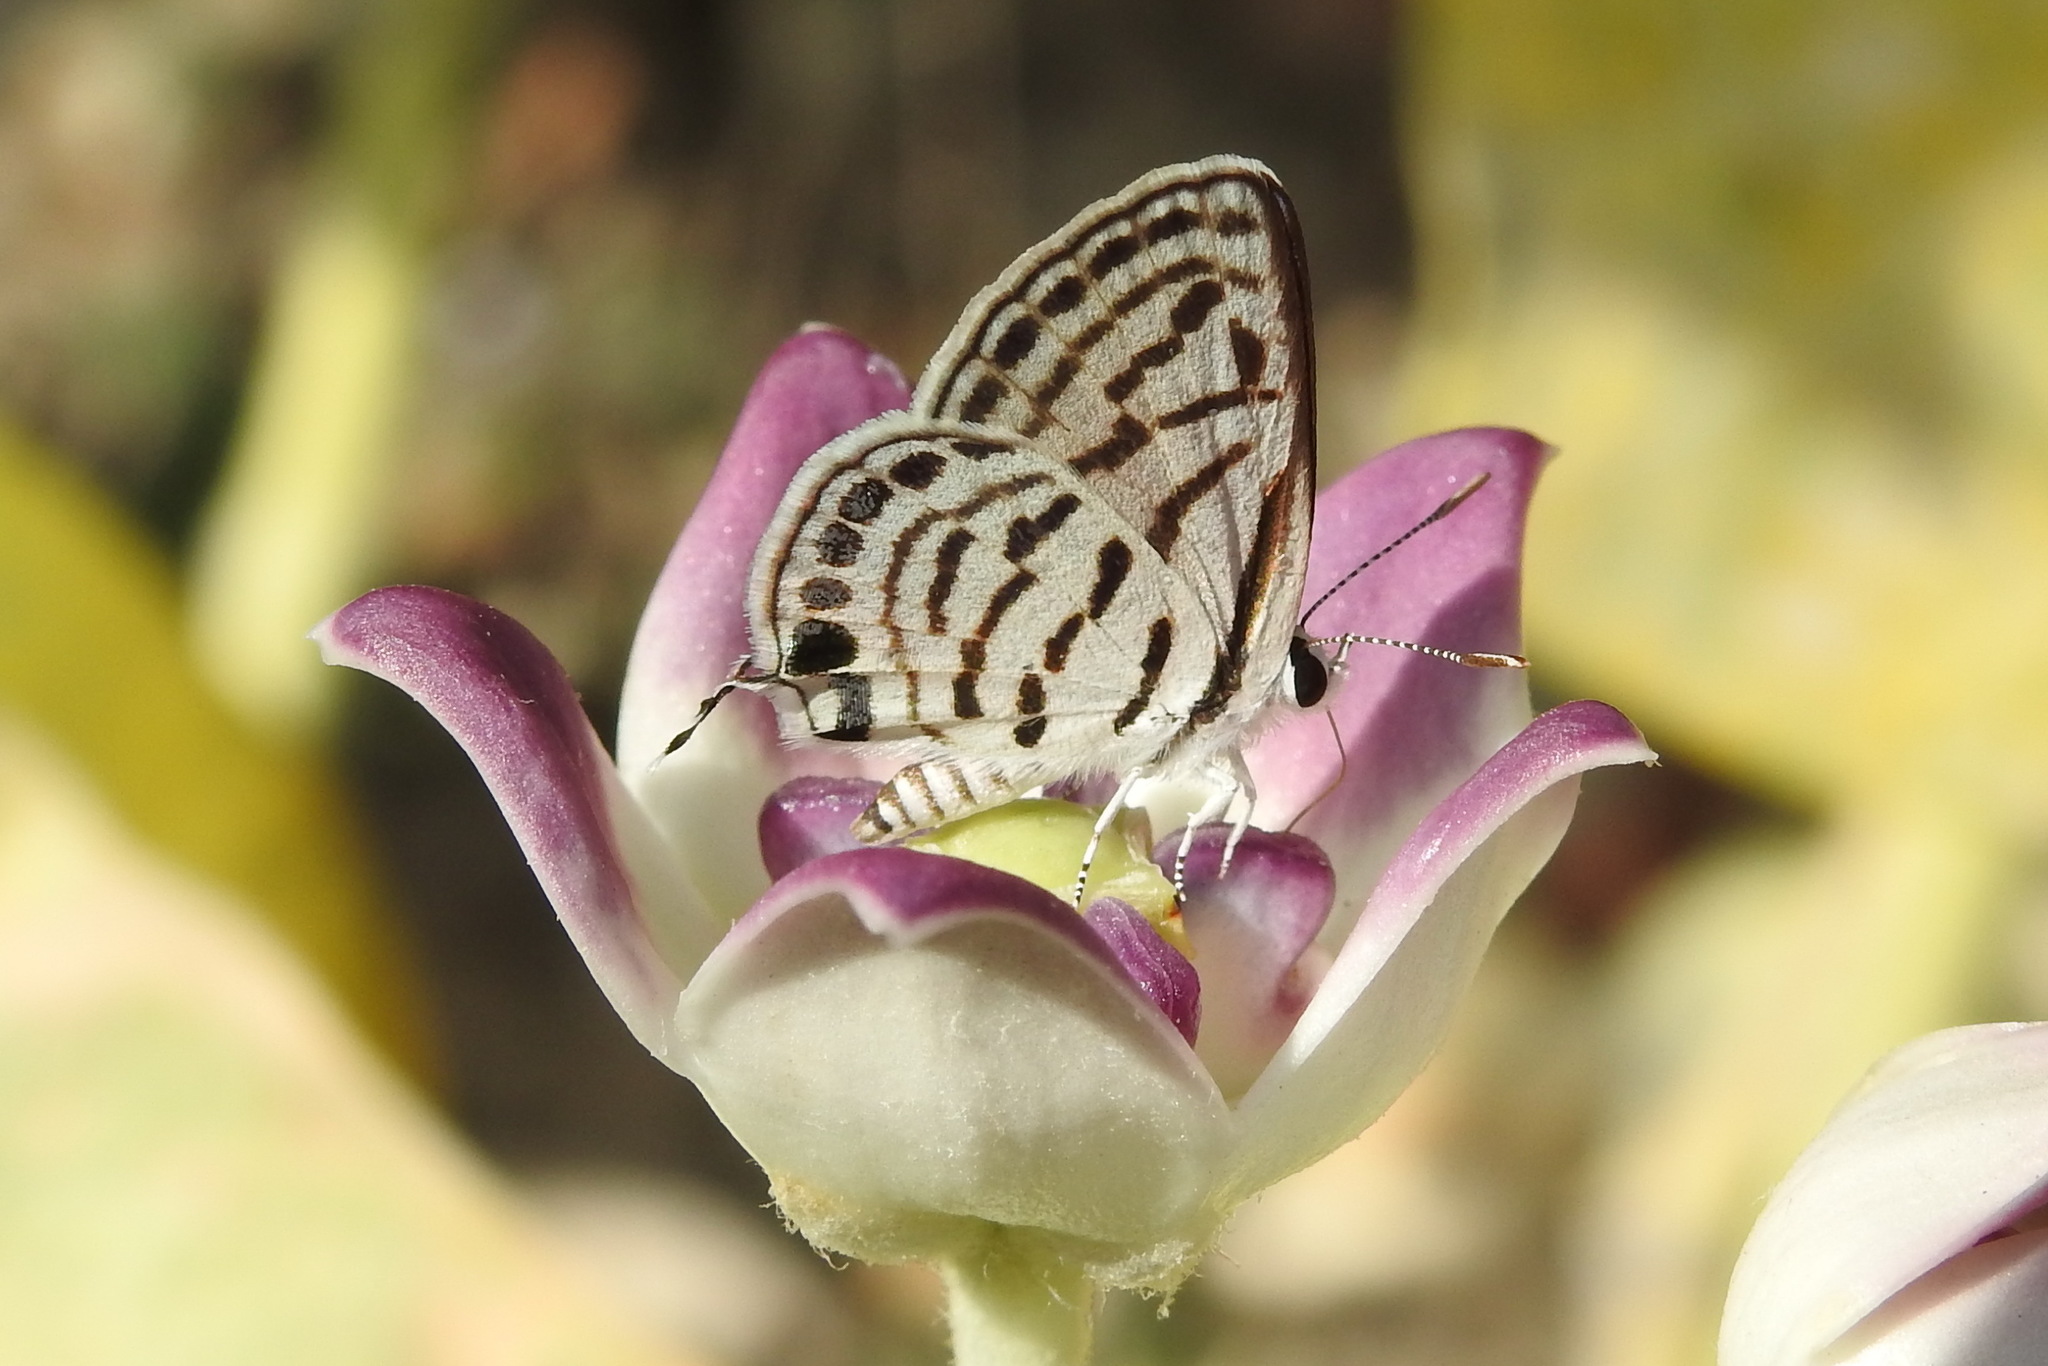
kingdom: Animalia
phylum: Arthropoda
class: Insecta
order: Lepidoptera
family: Lycaenidae
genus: Tarucus
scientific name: Tarucus rosacea
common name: Mediterranean pierrot
